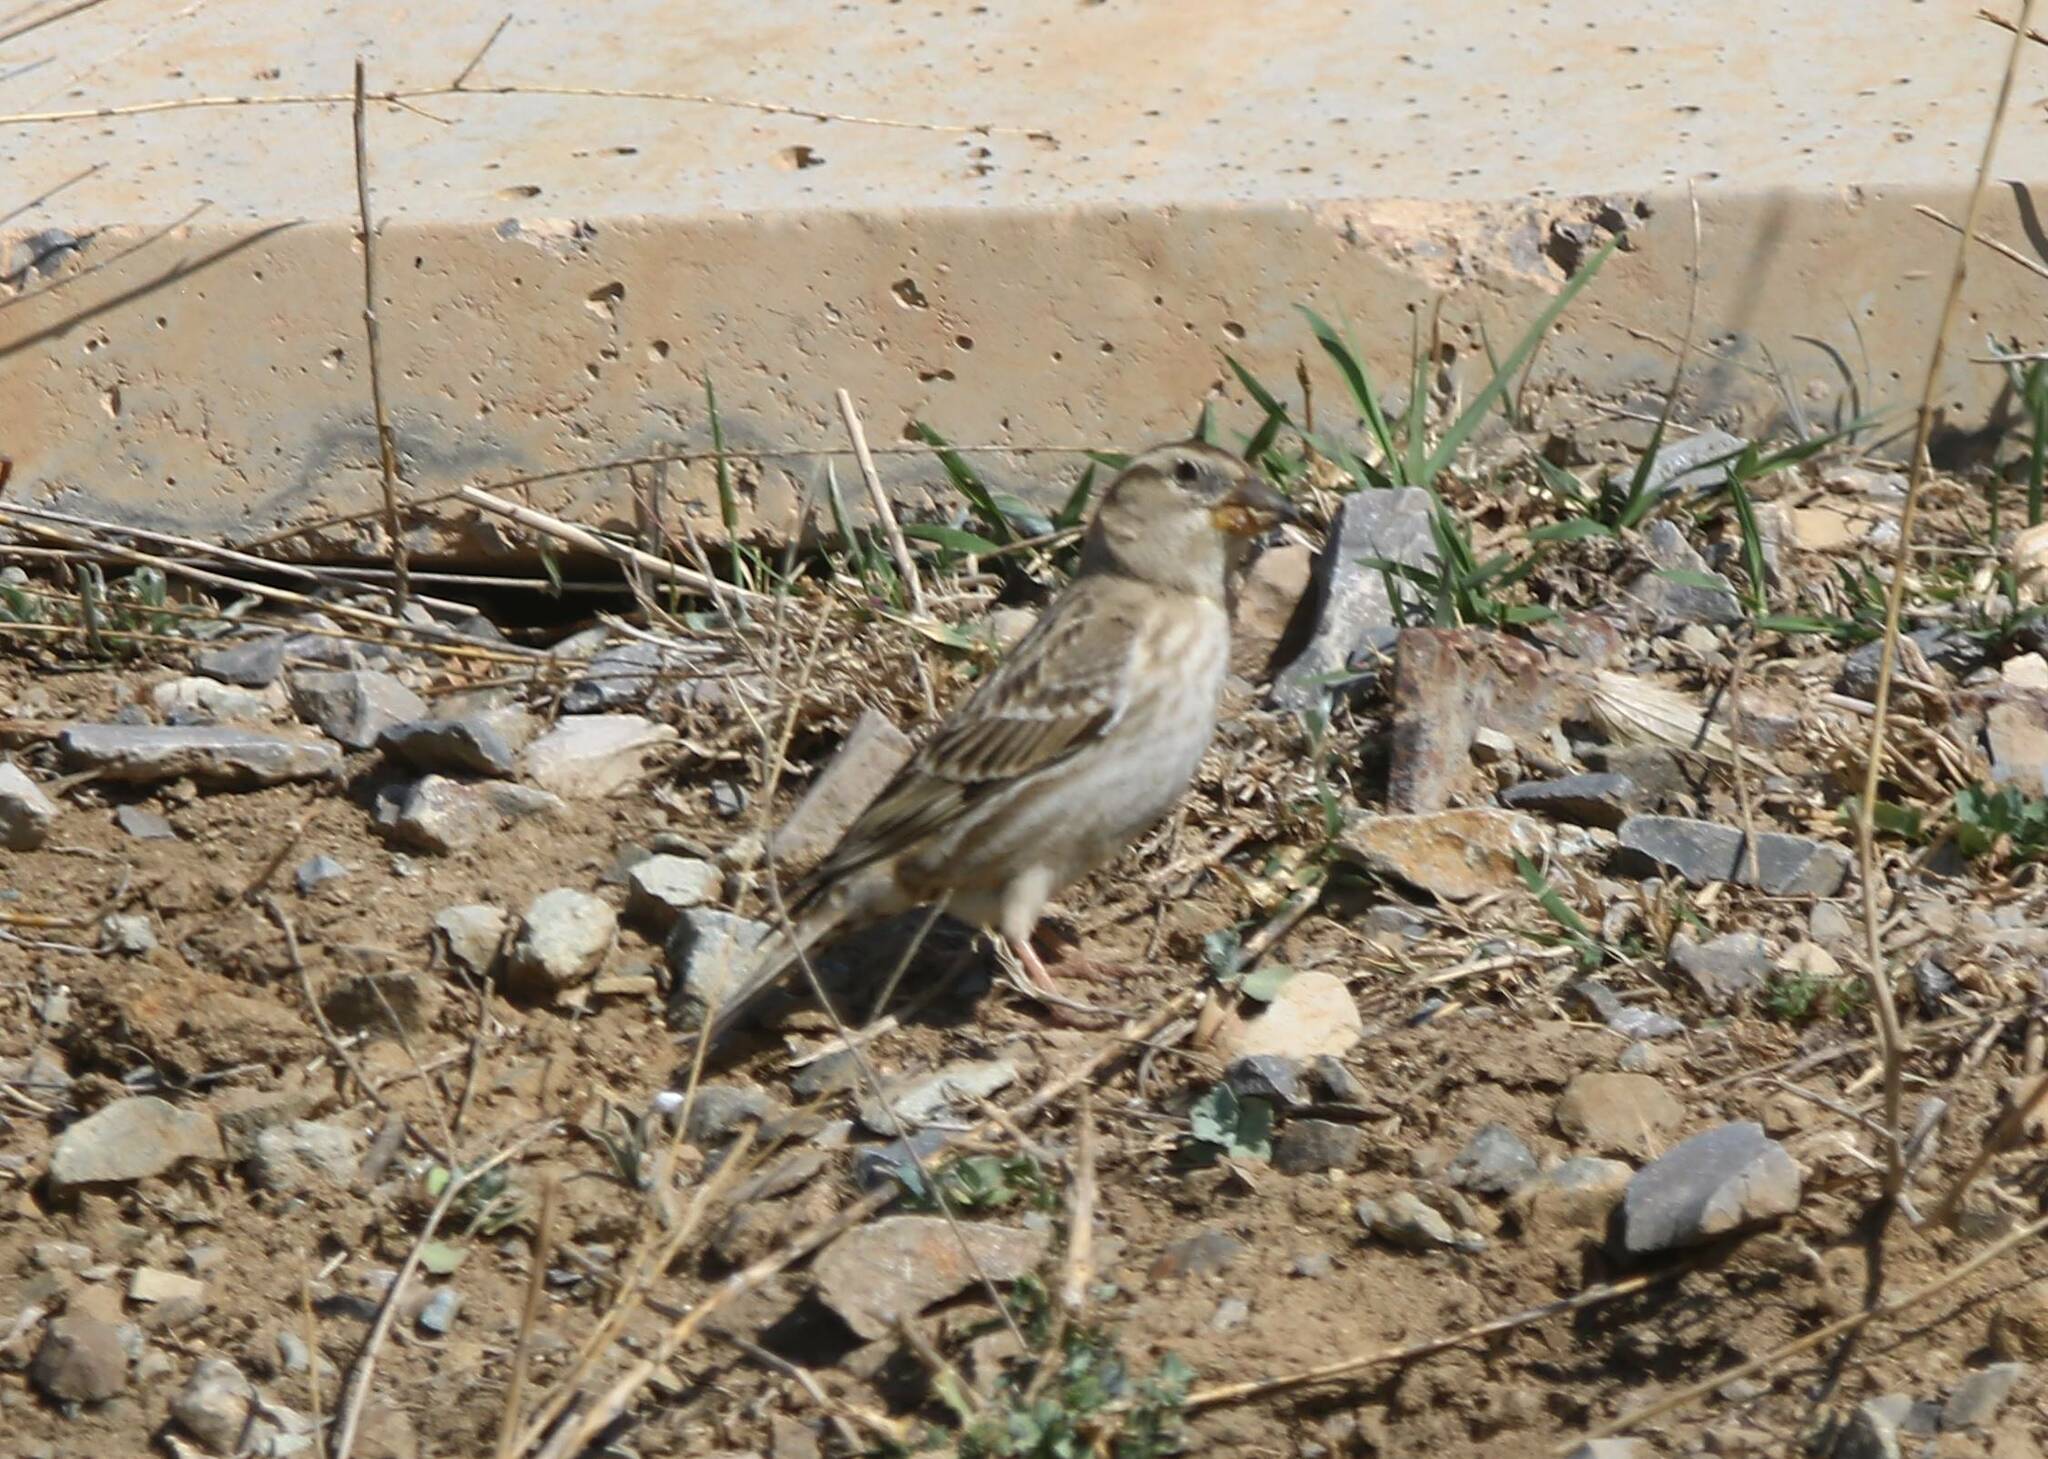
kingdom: Animalia
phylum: Chordata
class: Aves
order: Passeriformes
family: Passeridae
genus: Petronia
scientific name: Petronia petronia
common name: Rock sparrow
